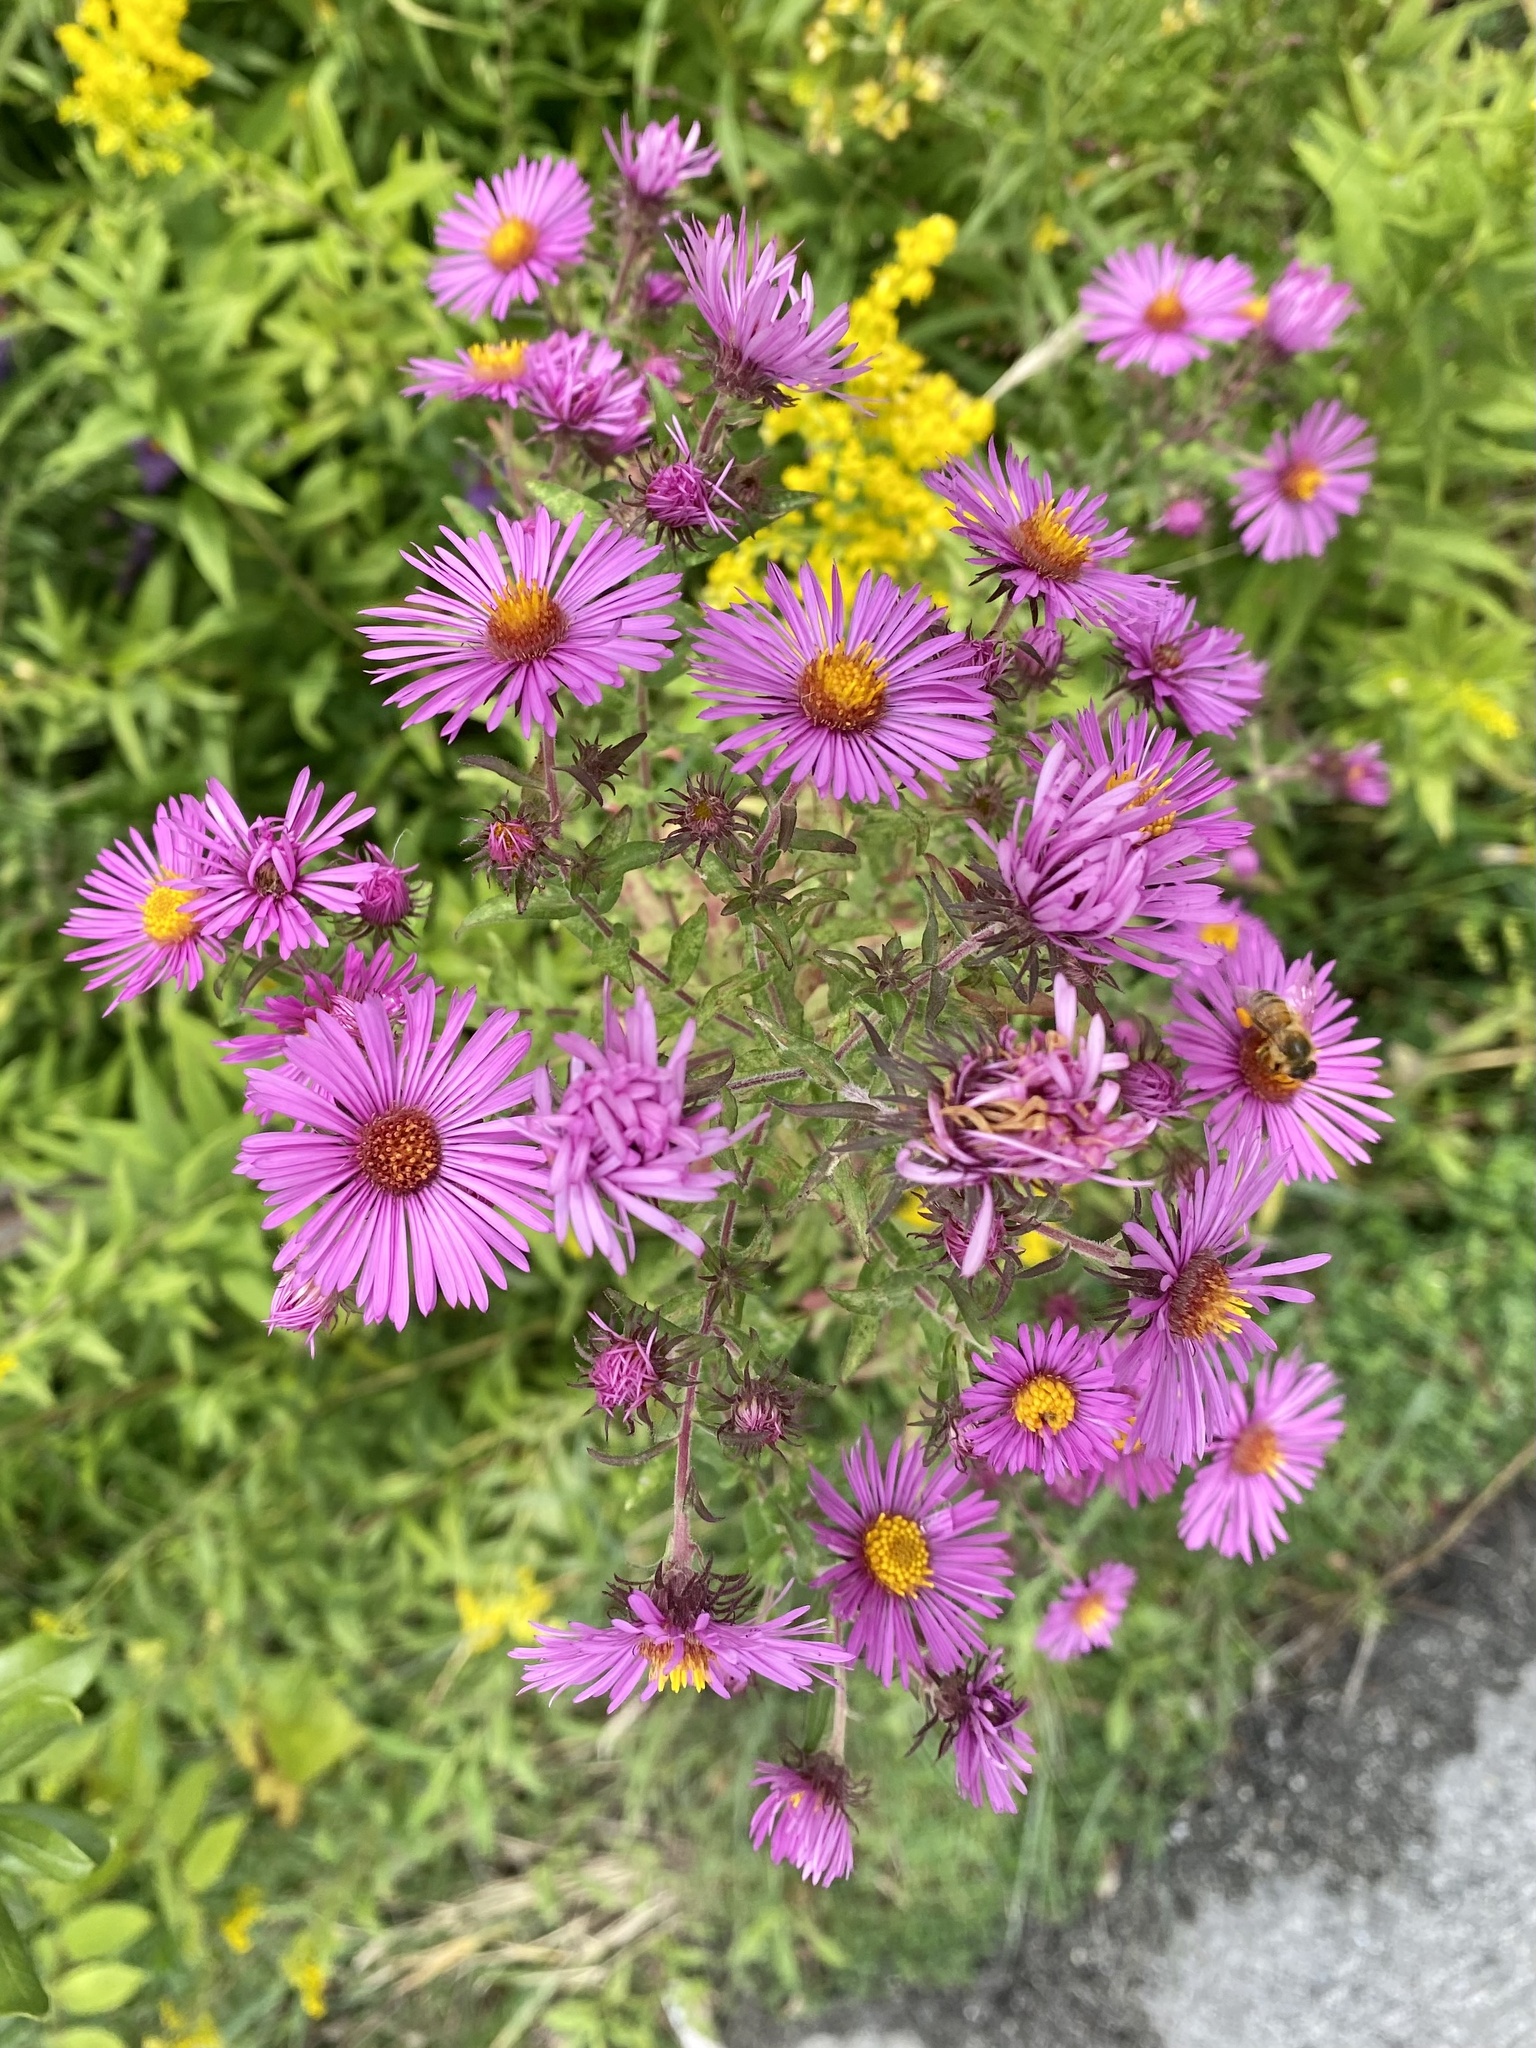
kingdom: Plantae
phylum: Tracheophyta
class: Magnoliopsida
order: Asterales
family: Asteraceae
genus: Symphyotrichum
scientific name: Symphyotrichum novae-angliae
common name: Michaelmas daisy
